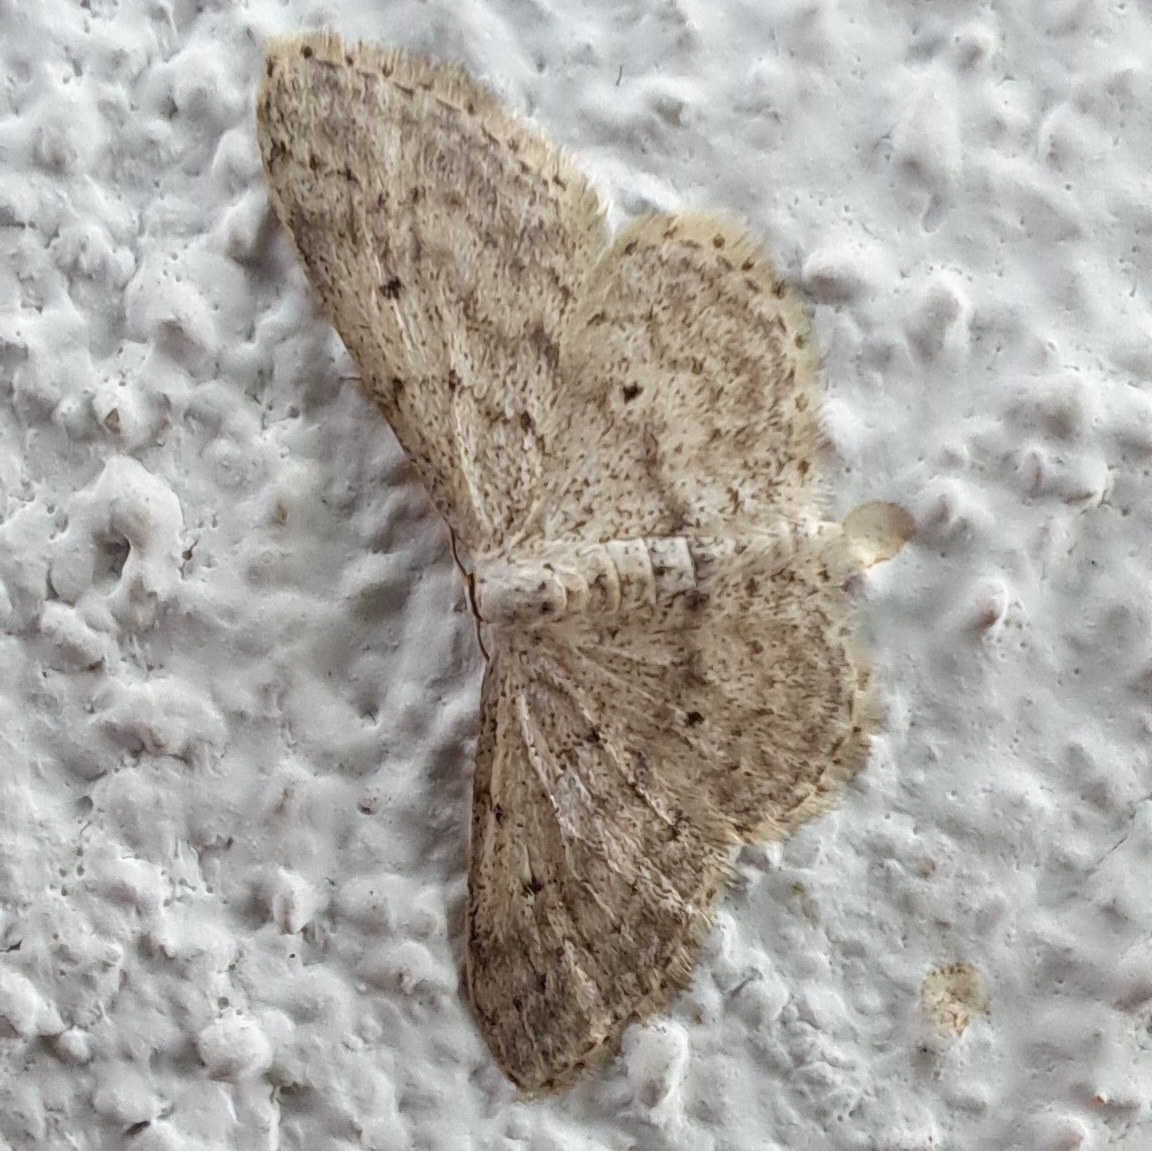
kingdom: Animalia
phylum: Arthropoda
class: Insecta
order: Lepidoptera
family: Geometridae
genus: Idaea
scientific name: Idaea seriata
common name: Small dusty wave
